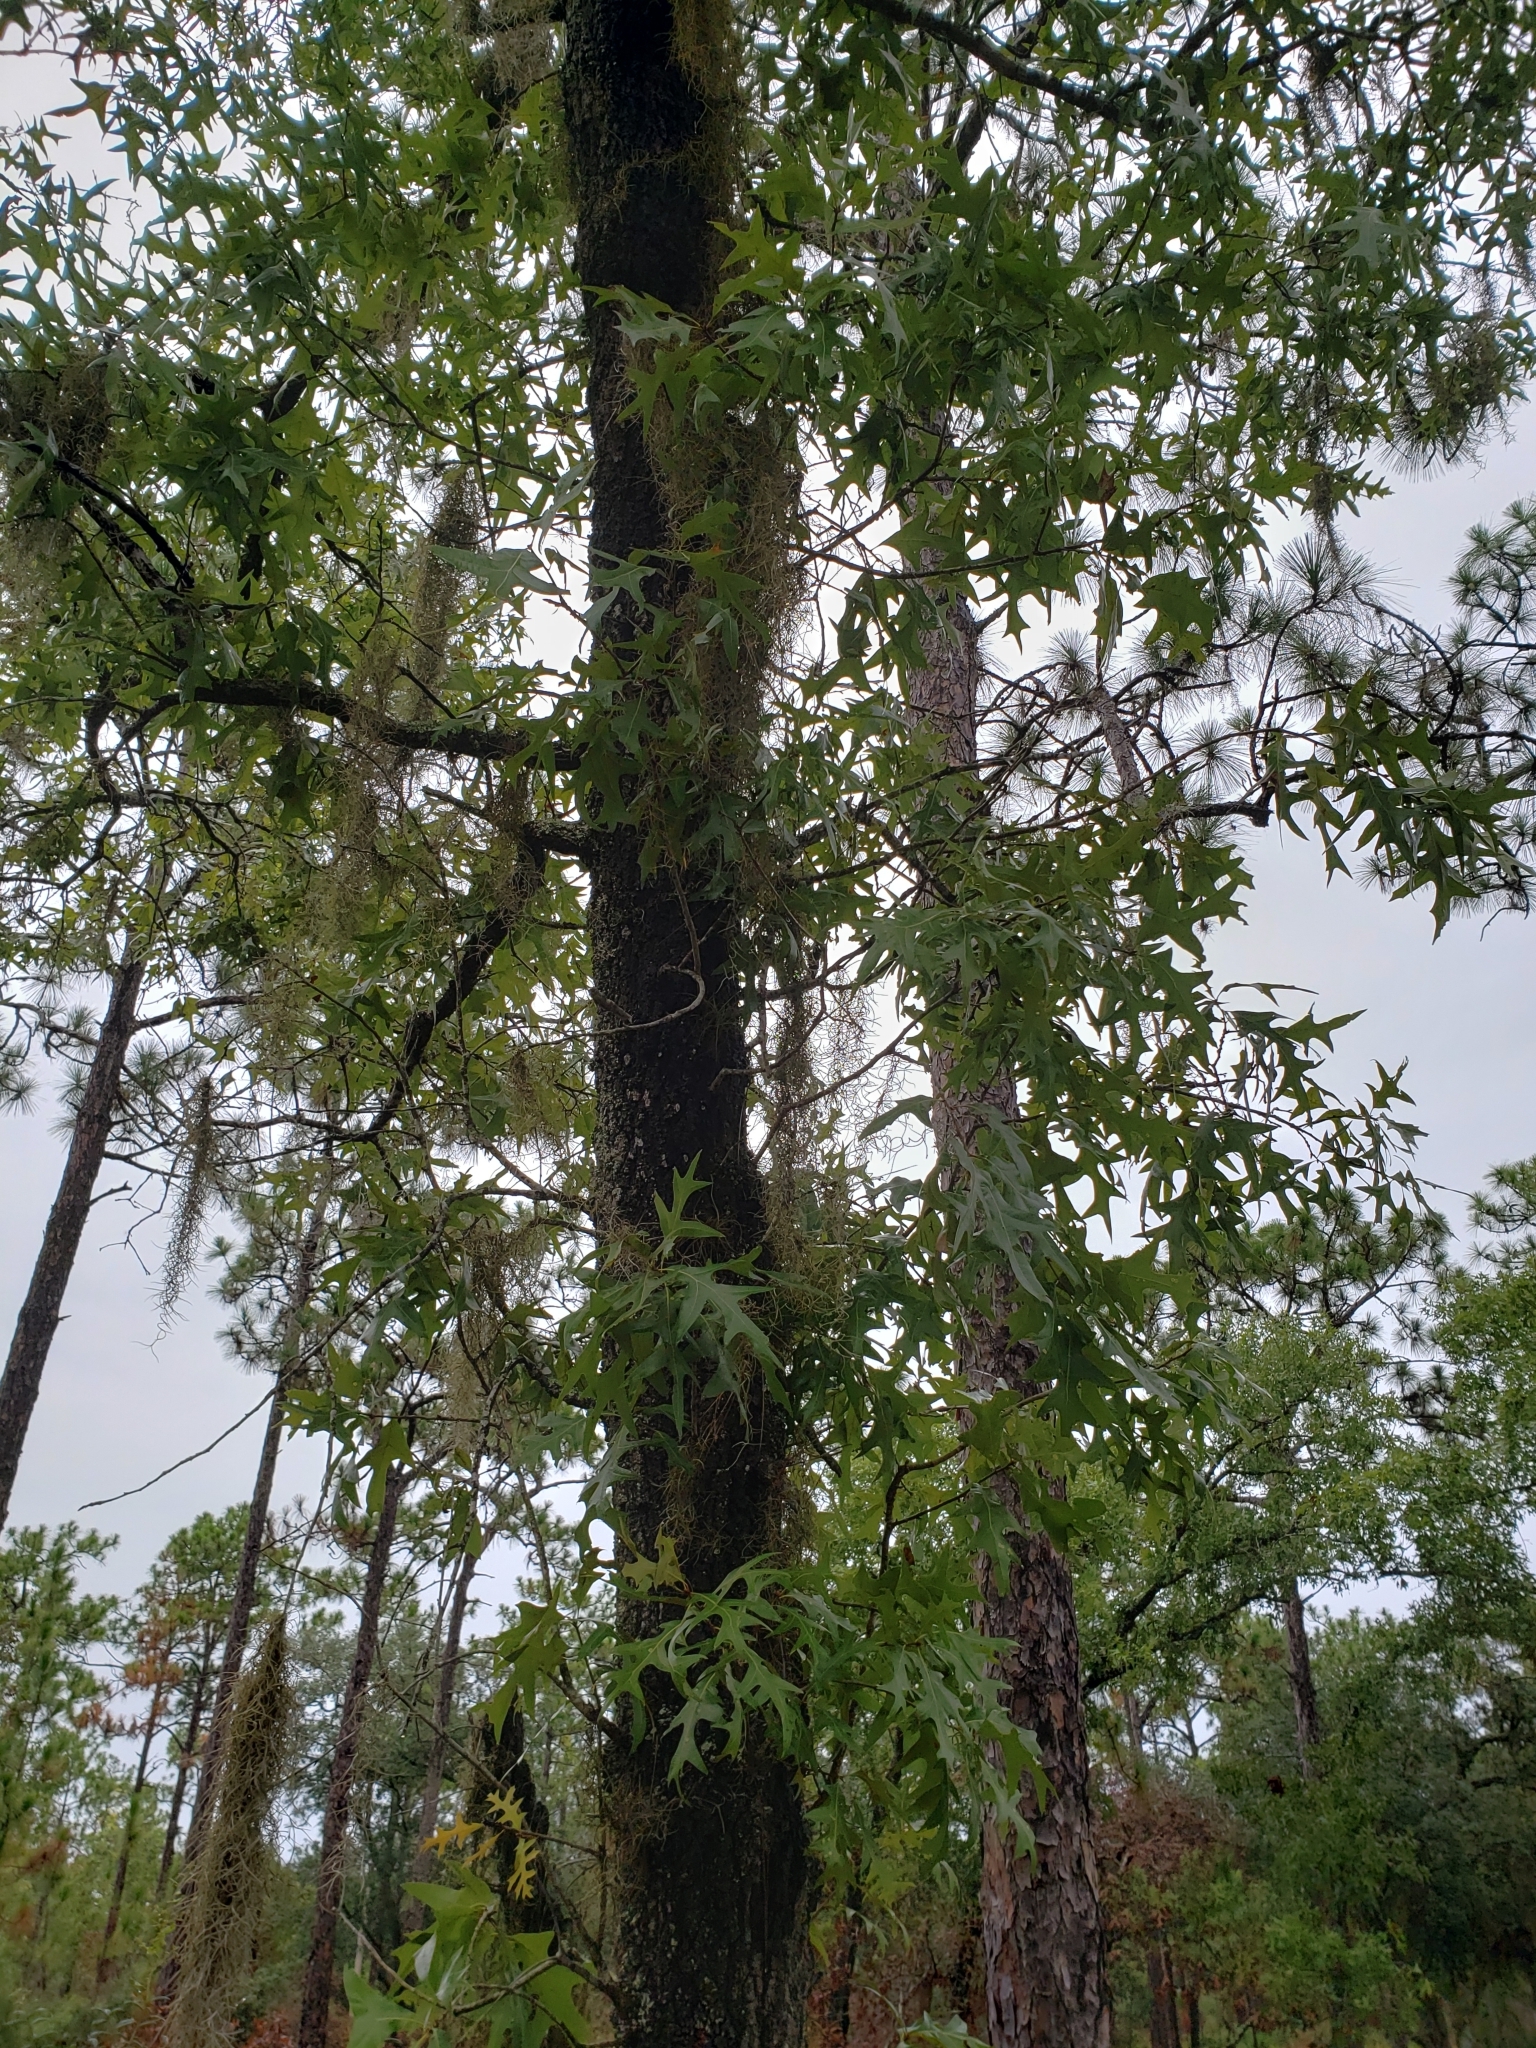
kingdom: Plantae
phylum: Tracheophyta
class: Magnoliopsida
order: Fagales
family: Fagaceae
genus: Quercus
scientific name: Quercus laevis
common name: Turkey oak
